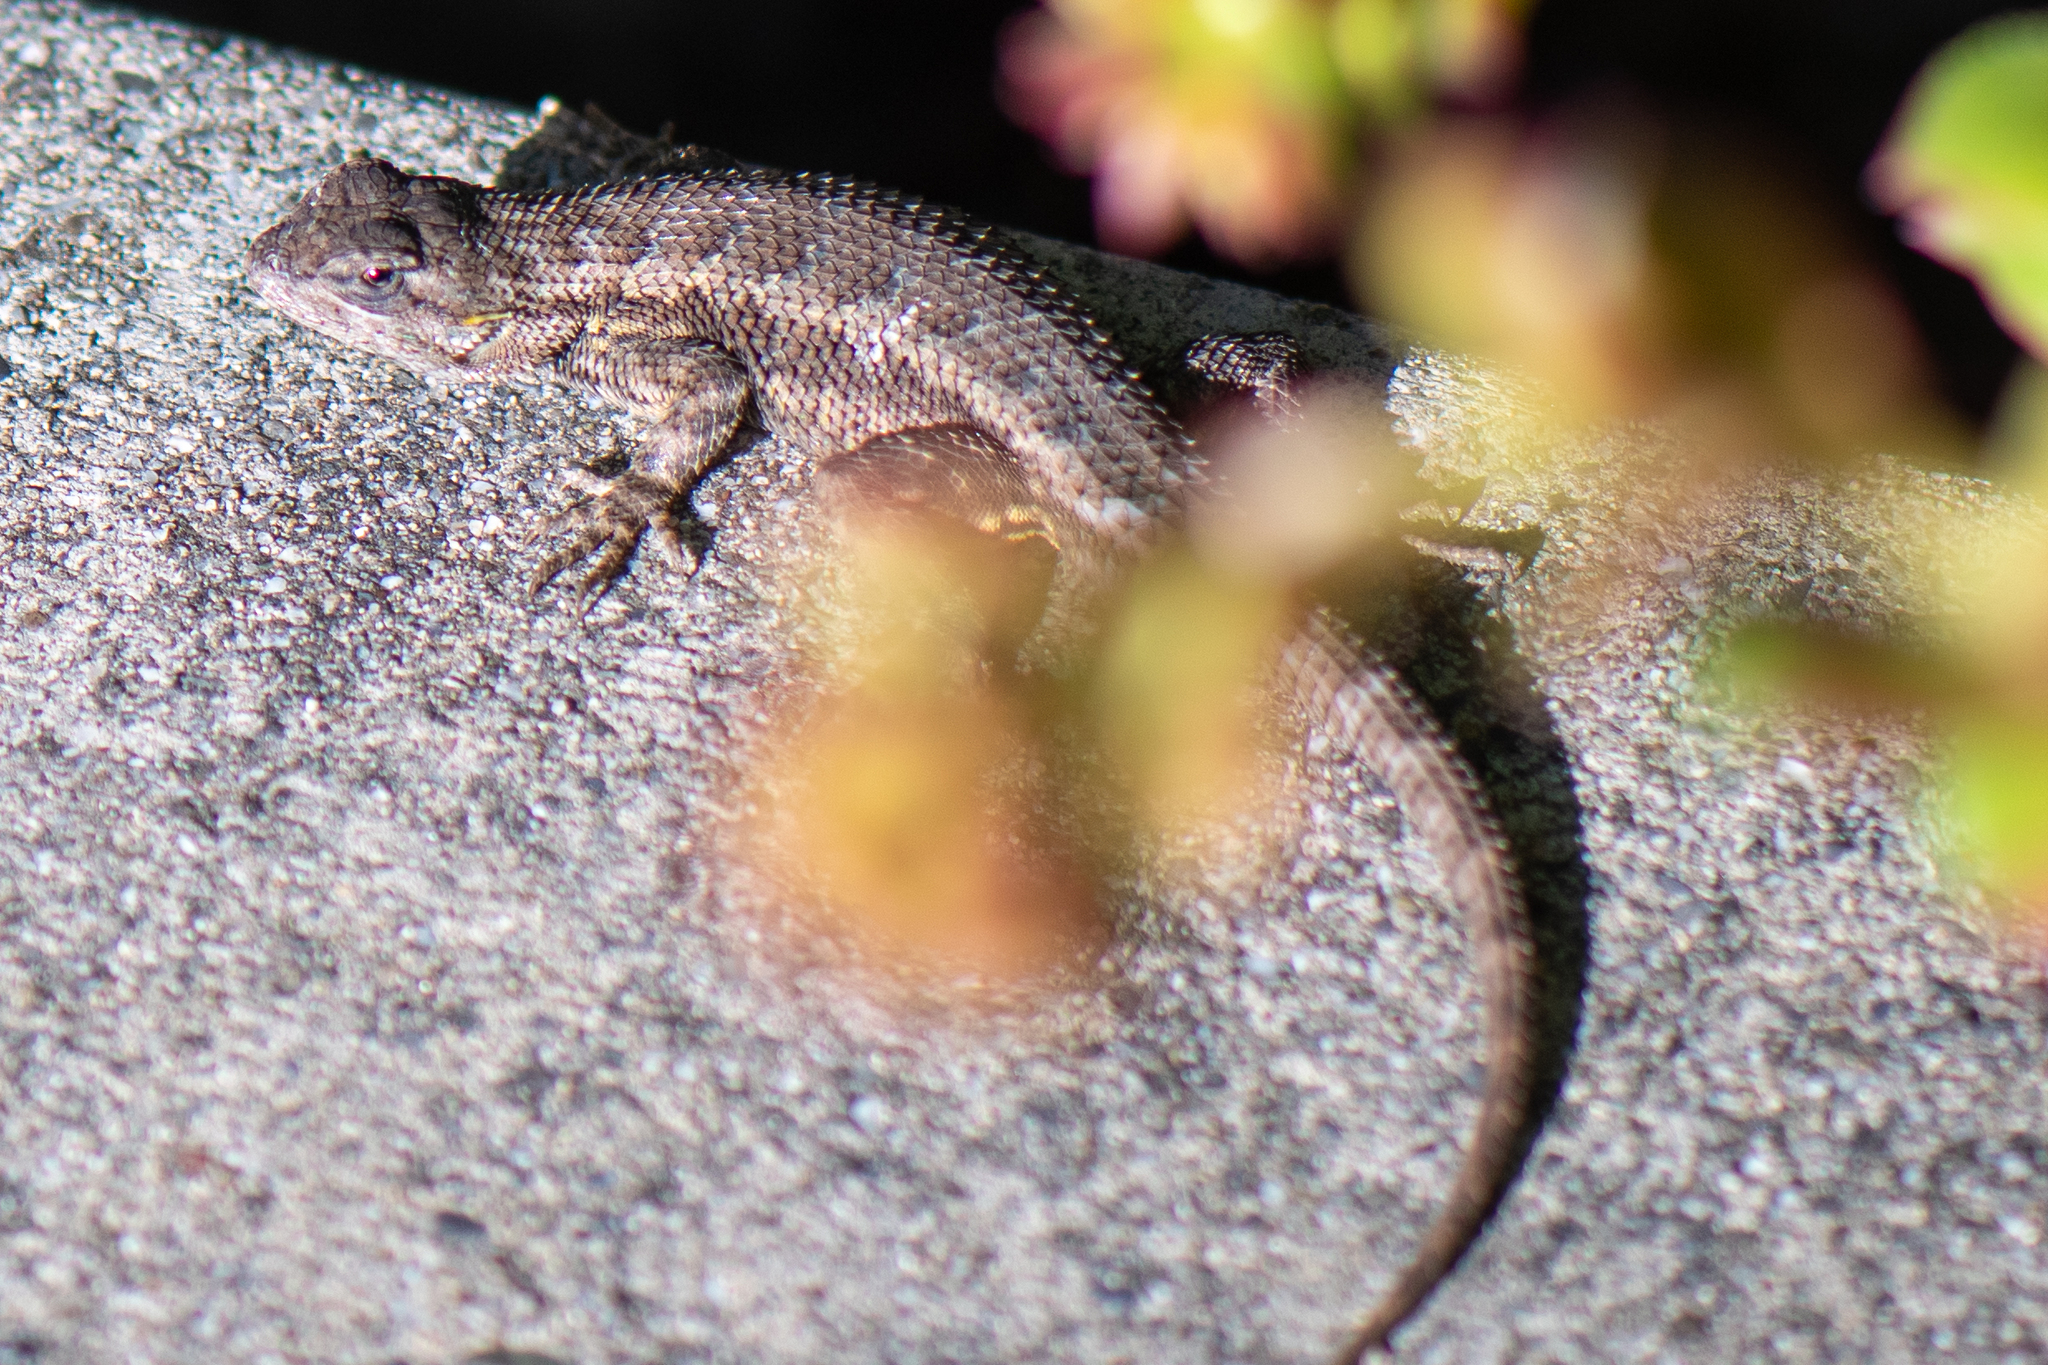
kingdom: Animalia
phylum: Chordata
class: Squamata
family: Phrynosomatidae
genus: Sceloporus
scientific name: Sceloporus occidentalis
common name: Western fence lizard
